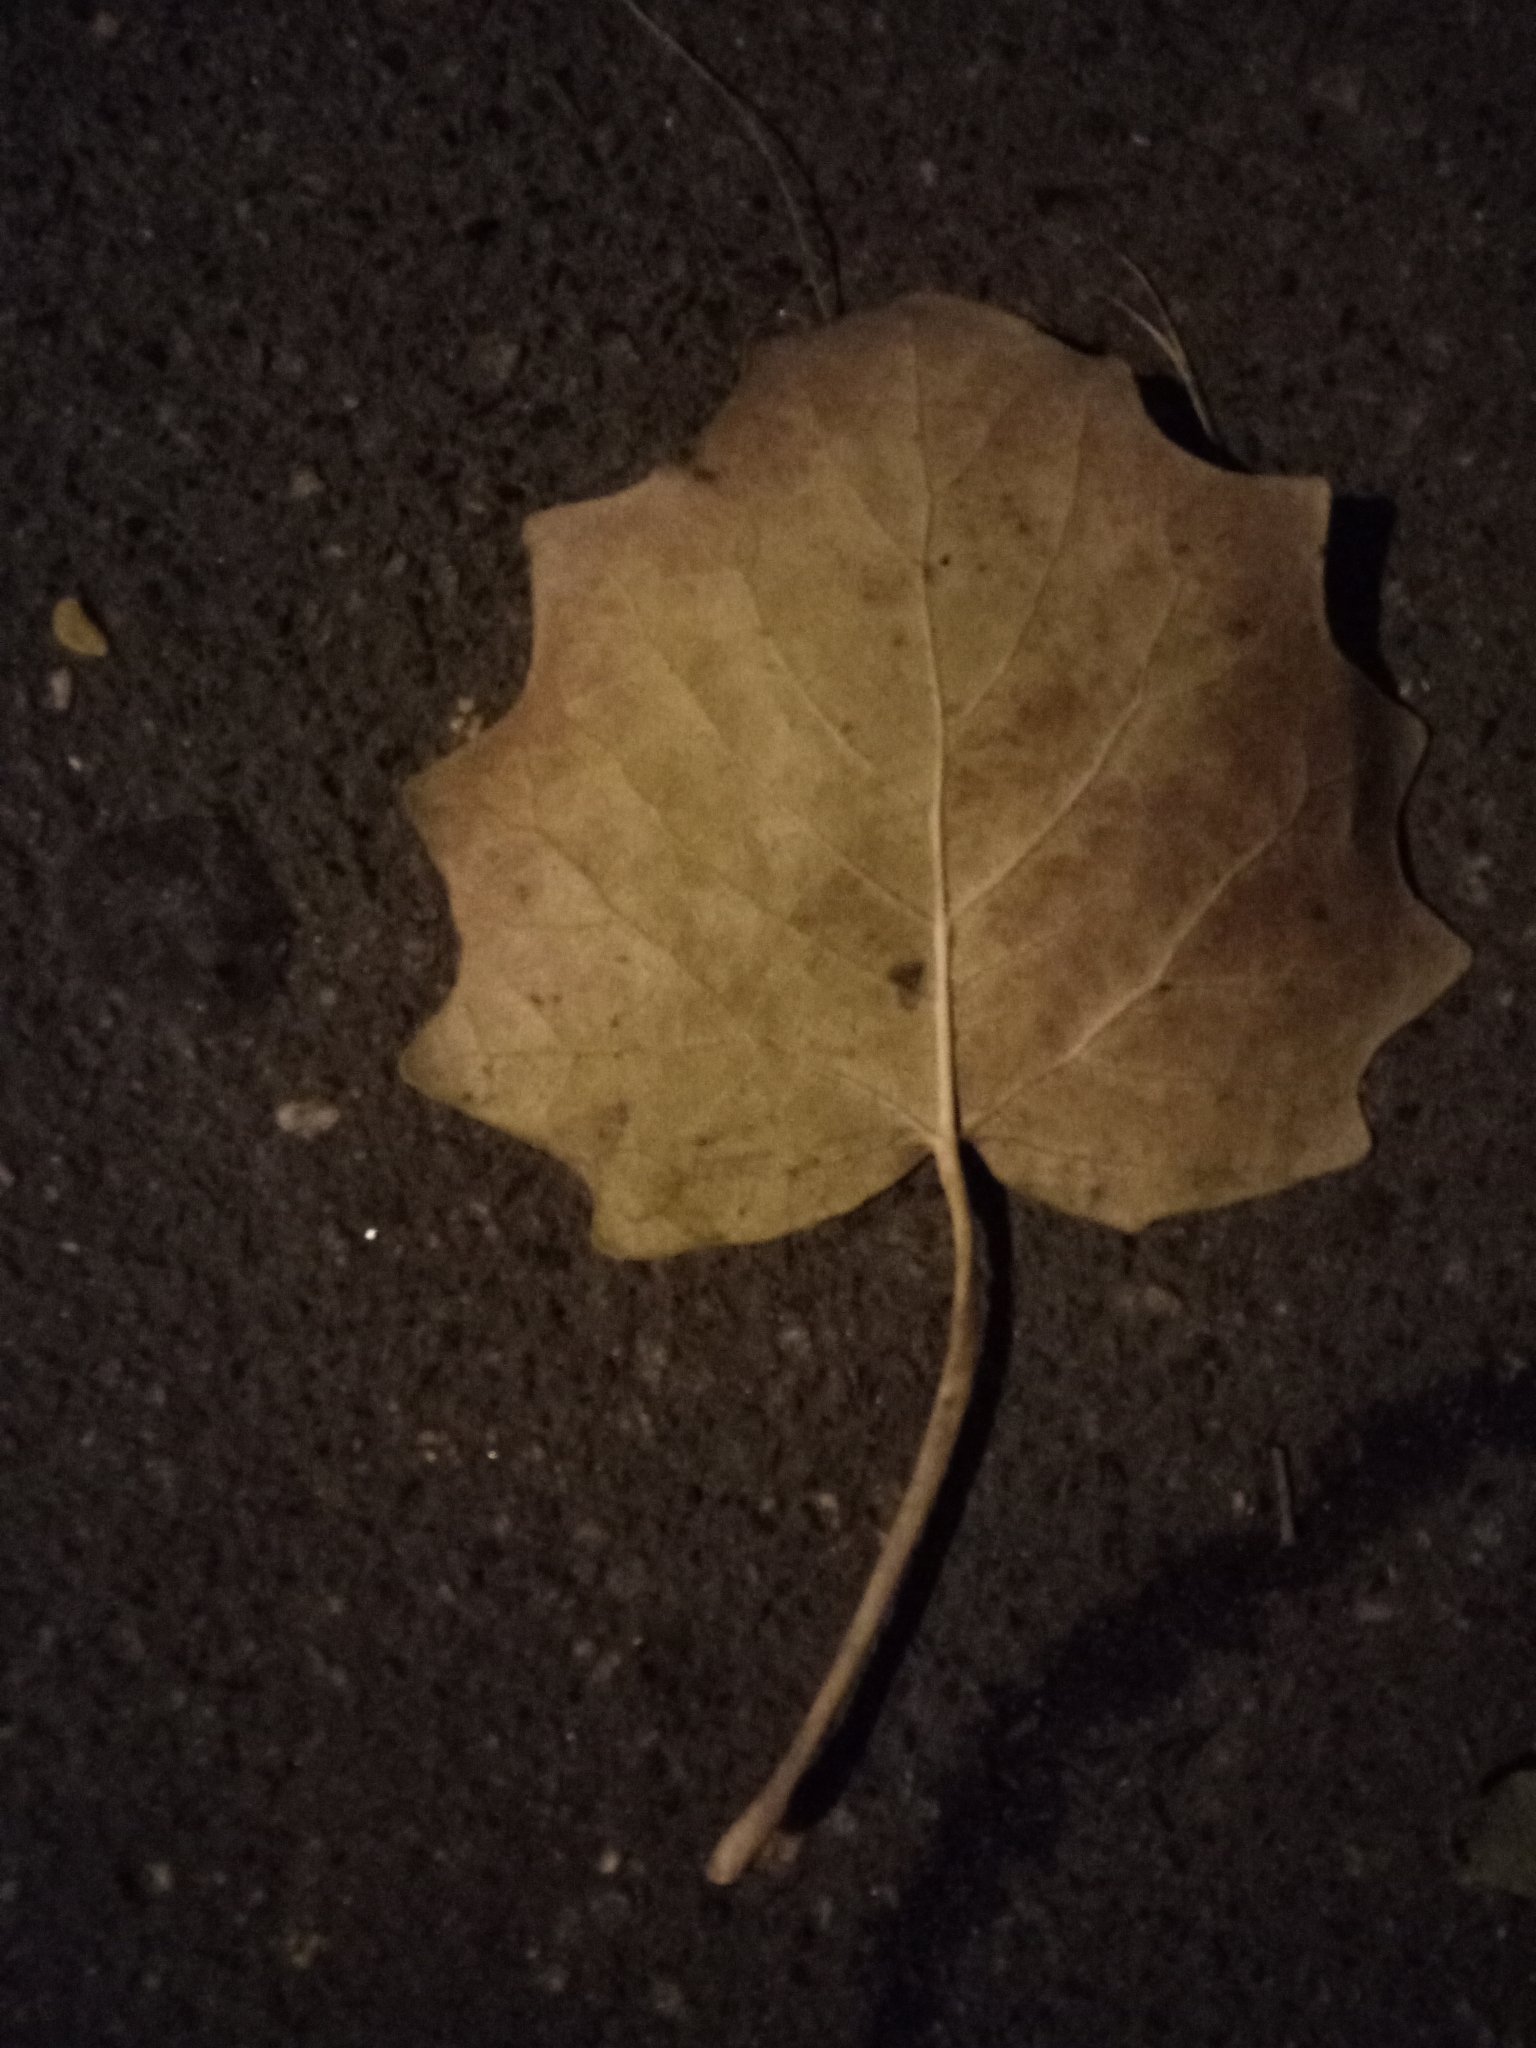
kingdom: Plantae
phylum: Tracheophyta
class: Magnoliopsida
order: Malpighiales
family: Salicaceae
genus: Populus
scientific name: Populus tremula
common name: European aspen
